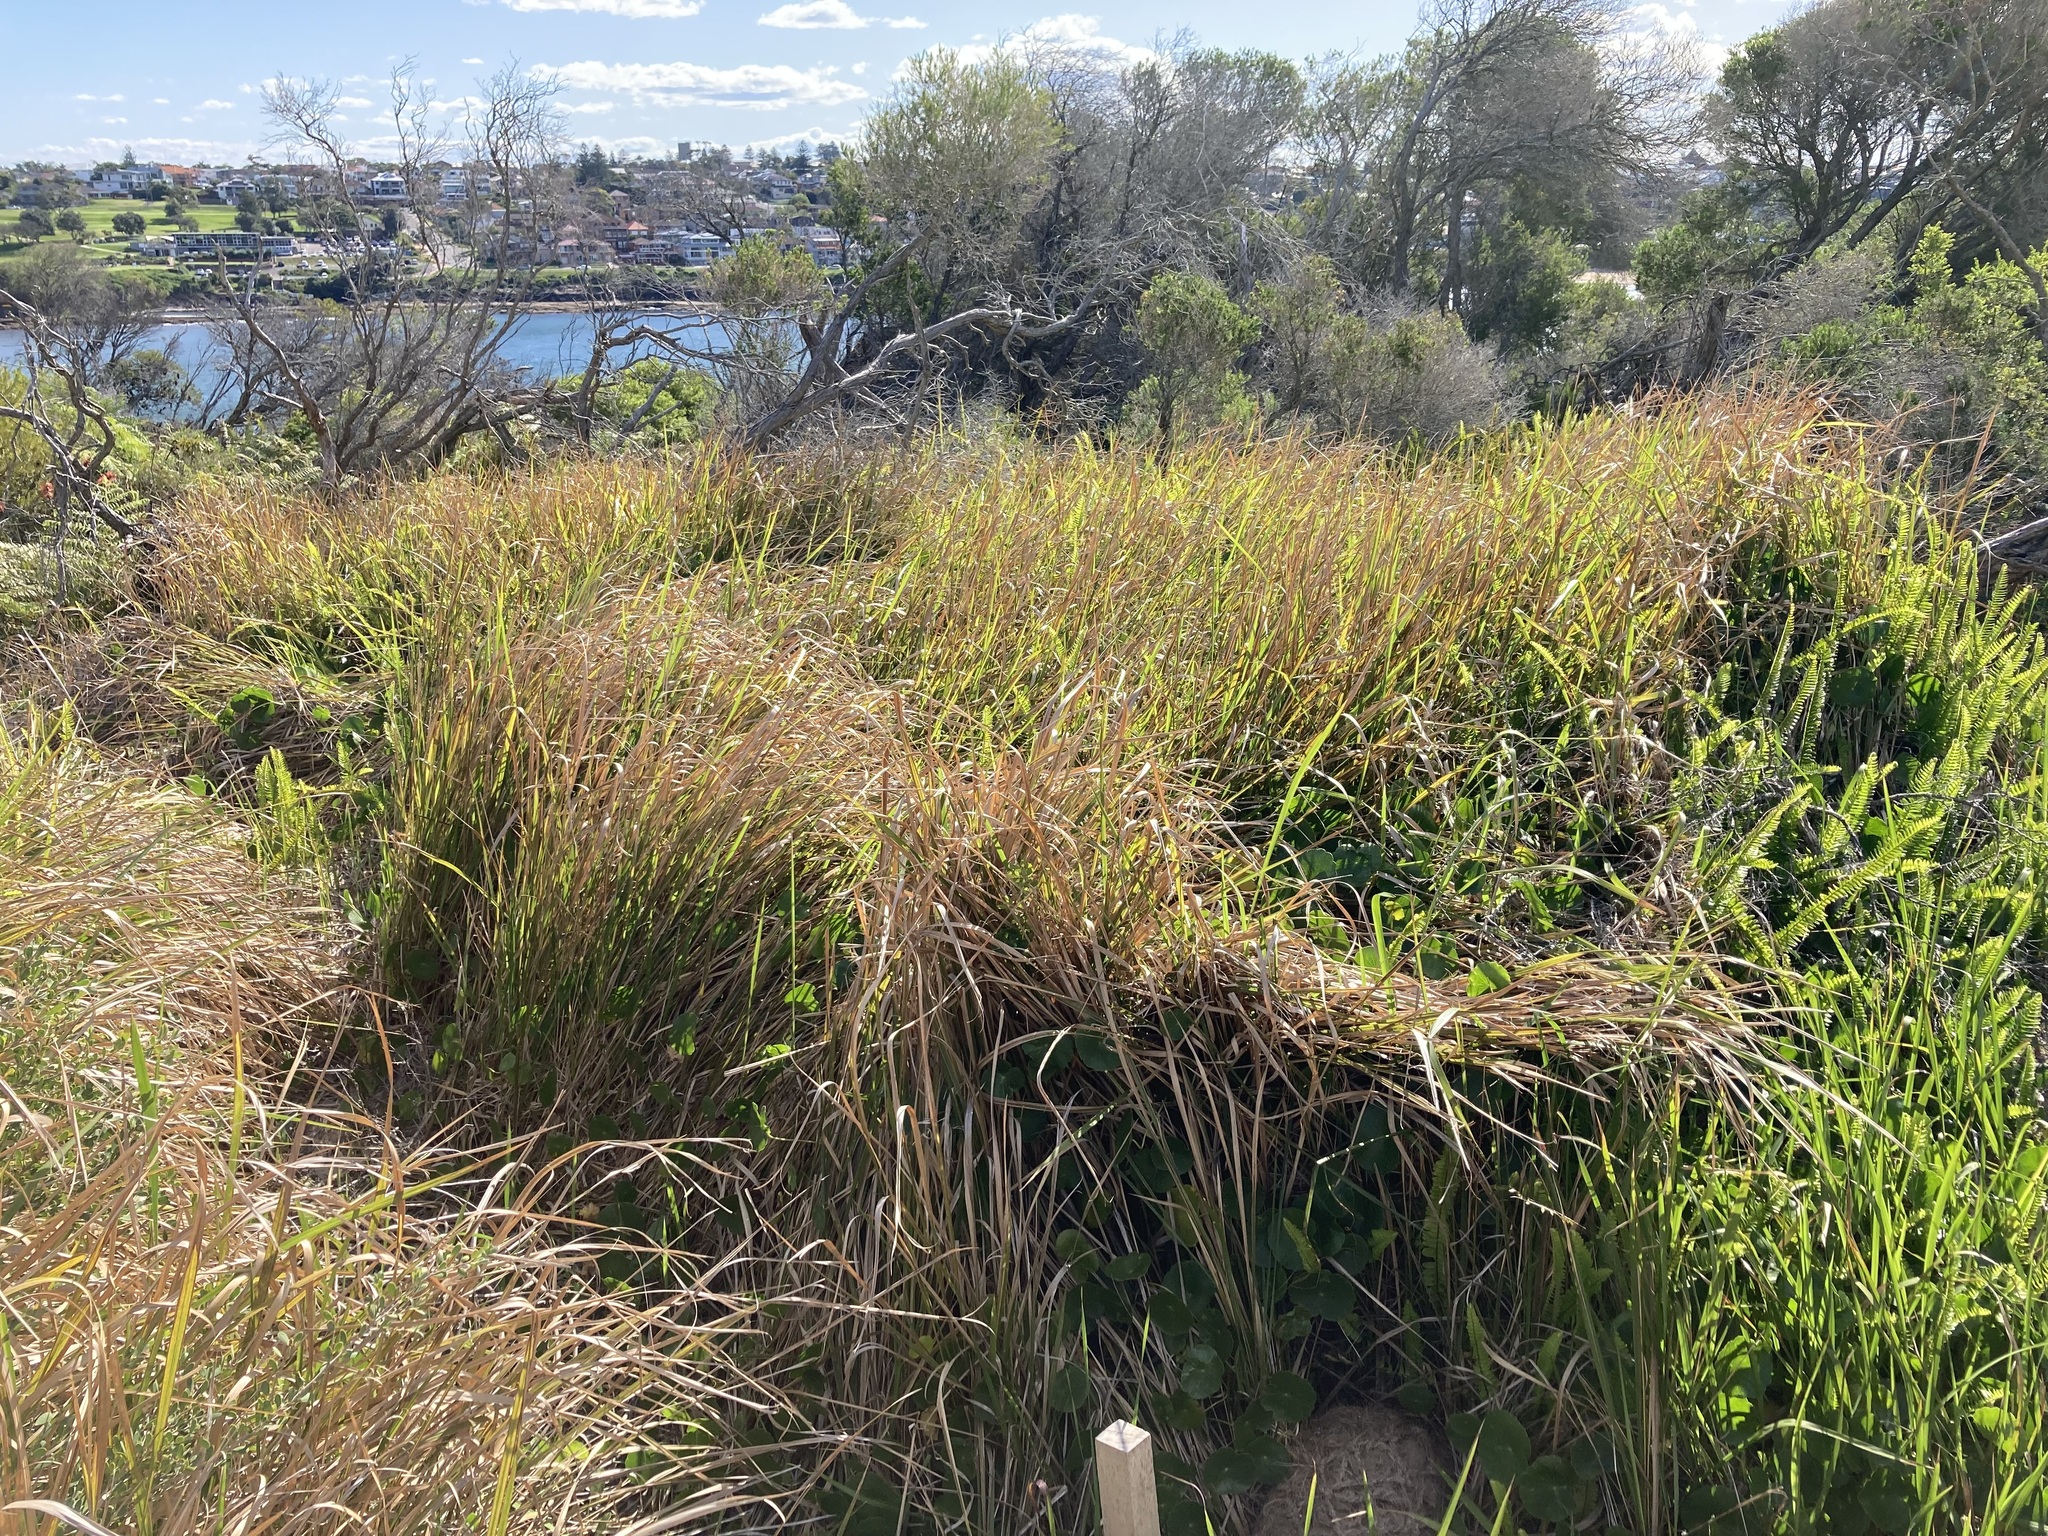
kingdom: Plantae
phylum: Tracheophyta
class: Liliopsida
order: Poales
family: Poaceae
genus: Imperata
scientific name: Imperata cylindrica
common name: Cogongrass
